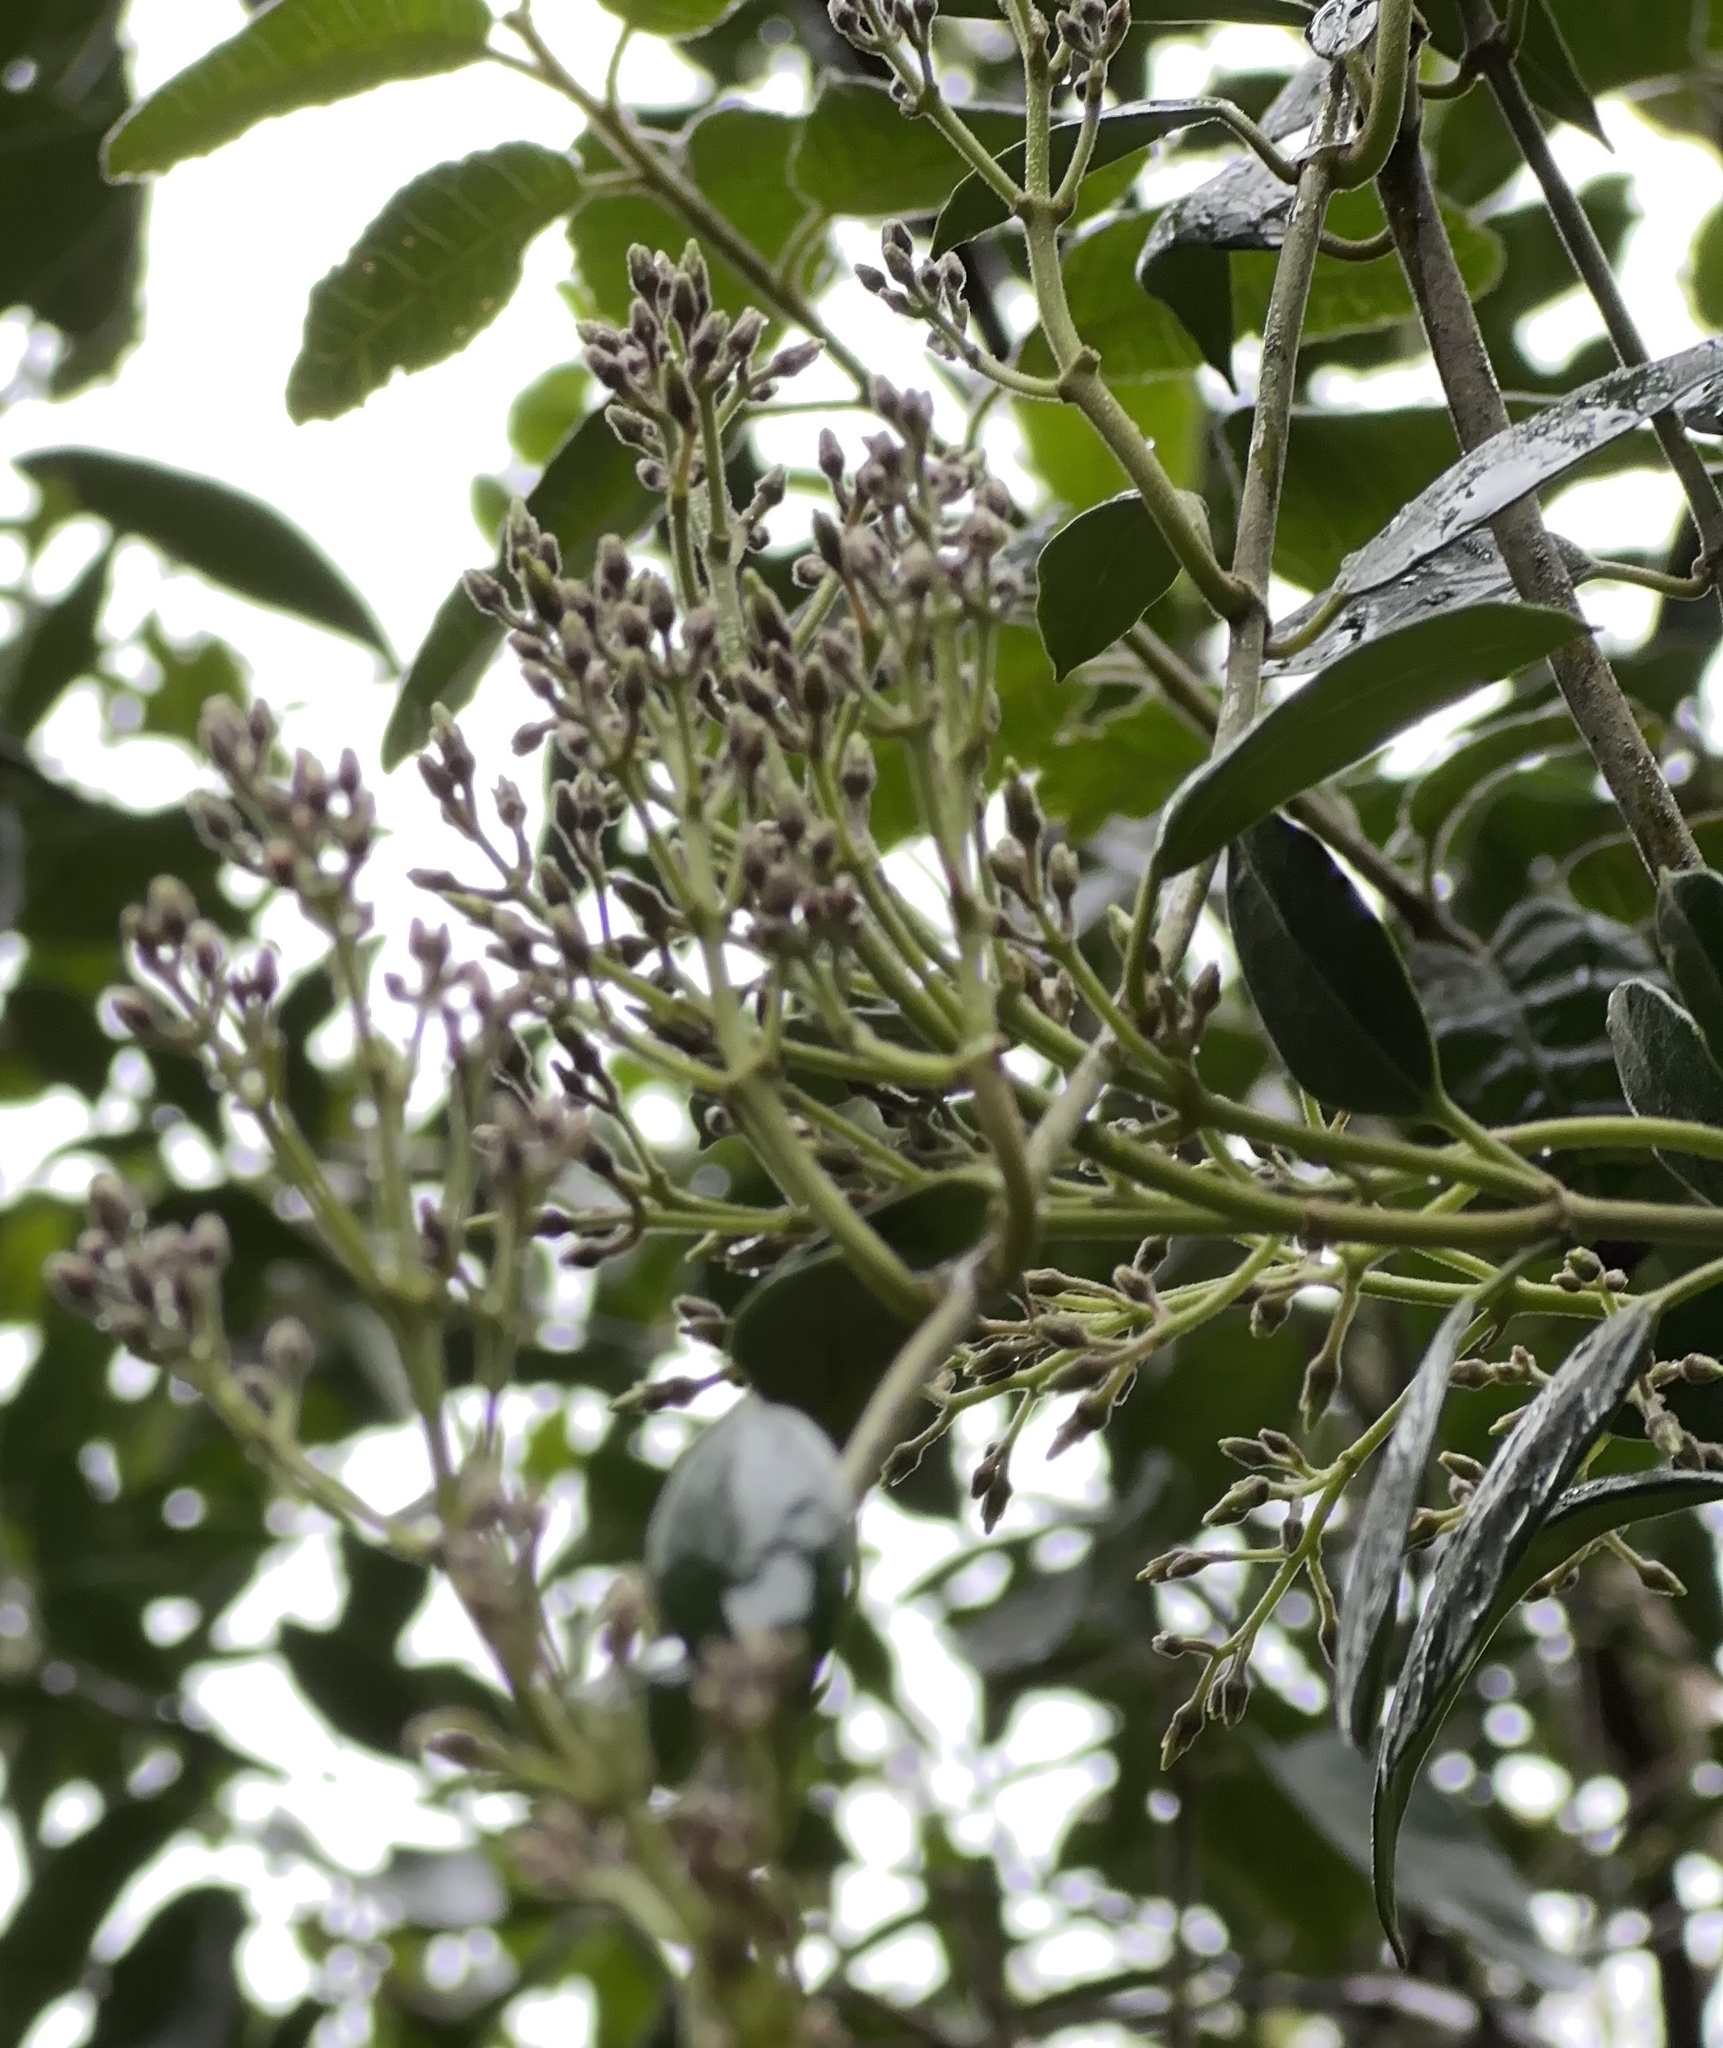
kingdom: Plantae
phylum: Tracheophyta
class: Magnoliopsida
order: Gentianales
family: Apocynaceae
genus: Parsonsia
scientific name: Parsonsia heterophylla
